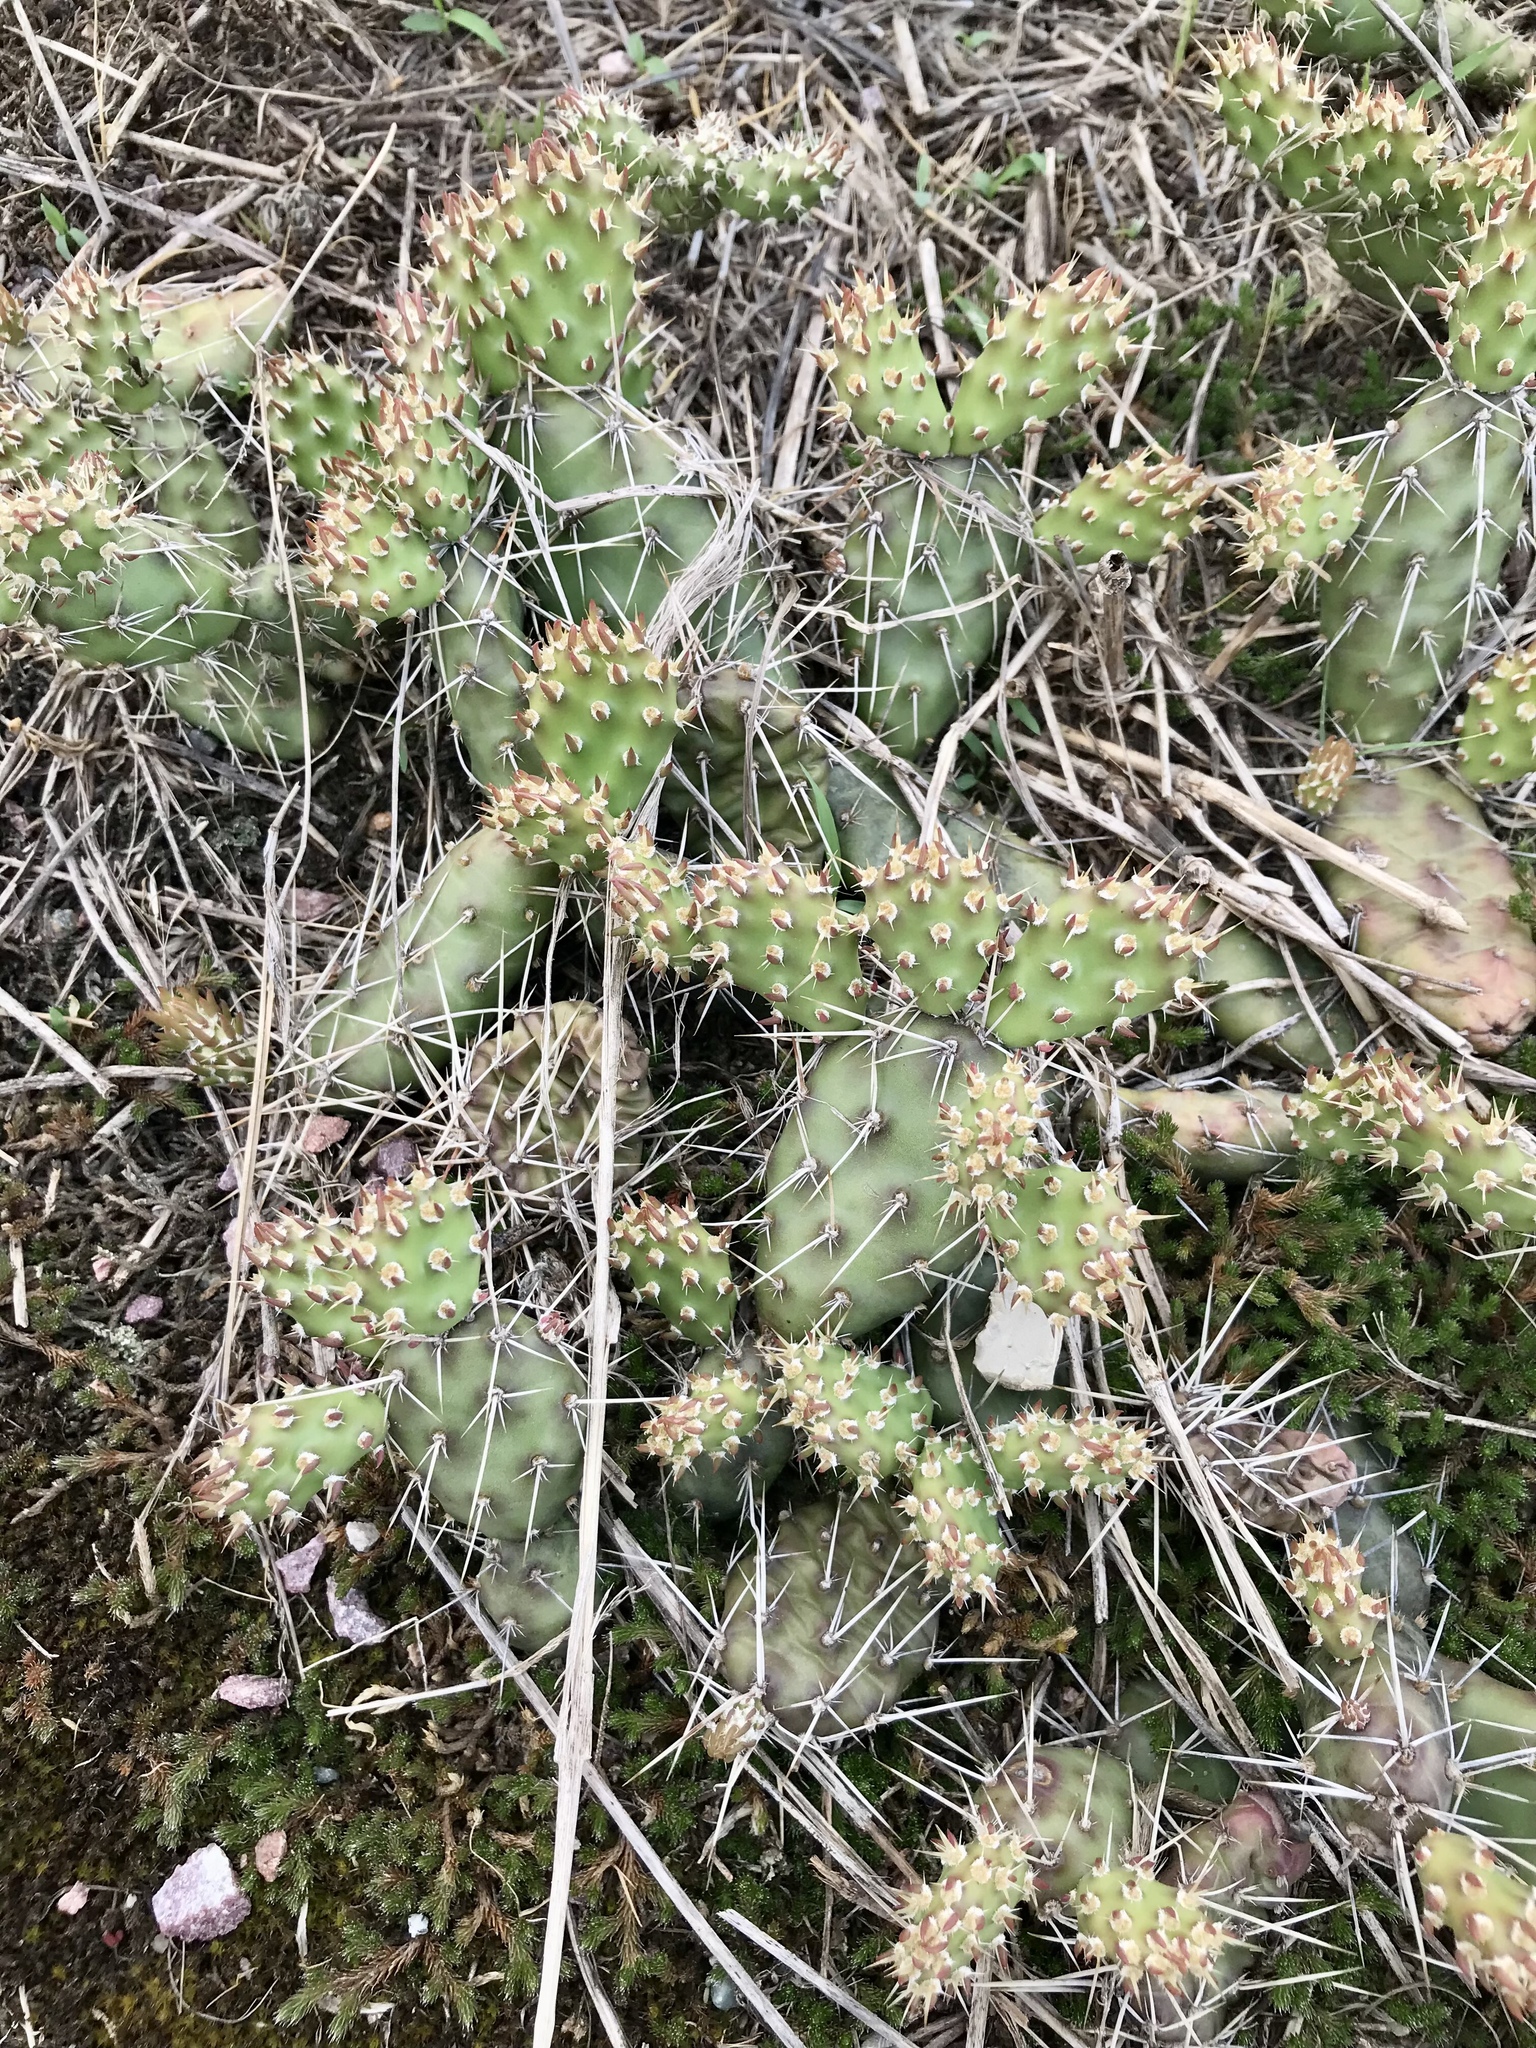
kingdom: Plantae
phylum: Tracheophyta
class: Magnoliopsida
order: Caryophyllales
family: Cactaceae
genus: Opuntia
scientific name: Opuntia fragilis
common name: Brittle cactus
